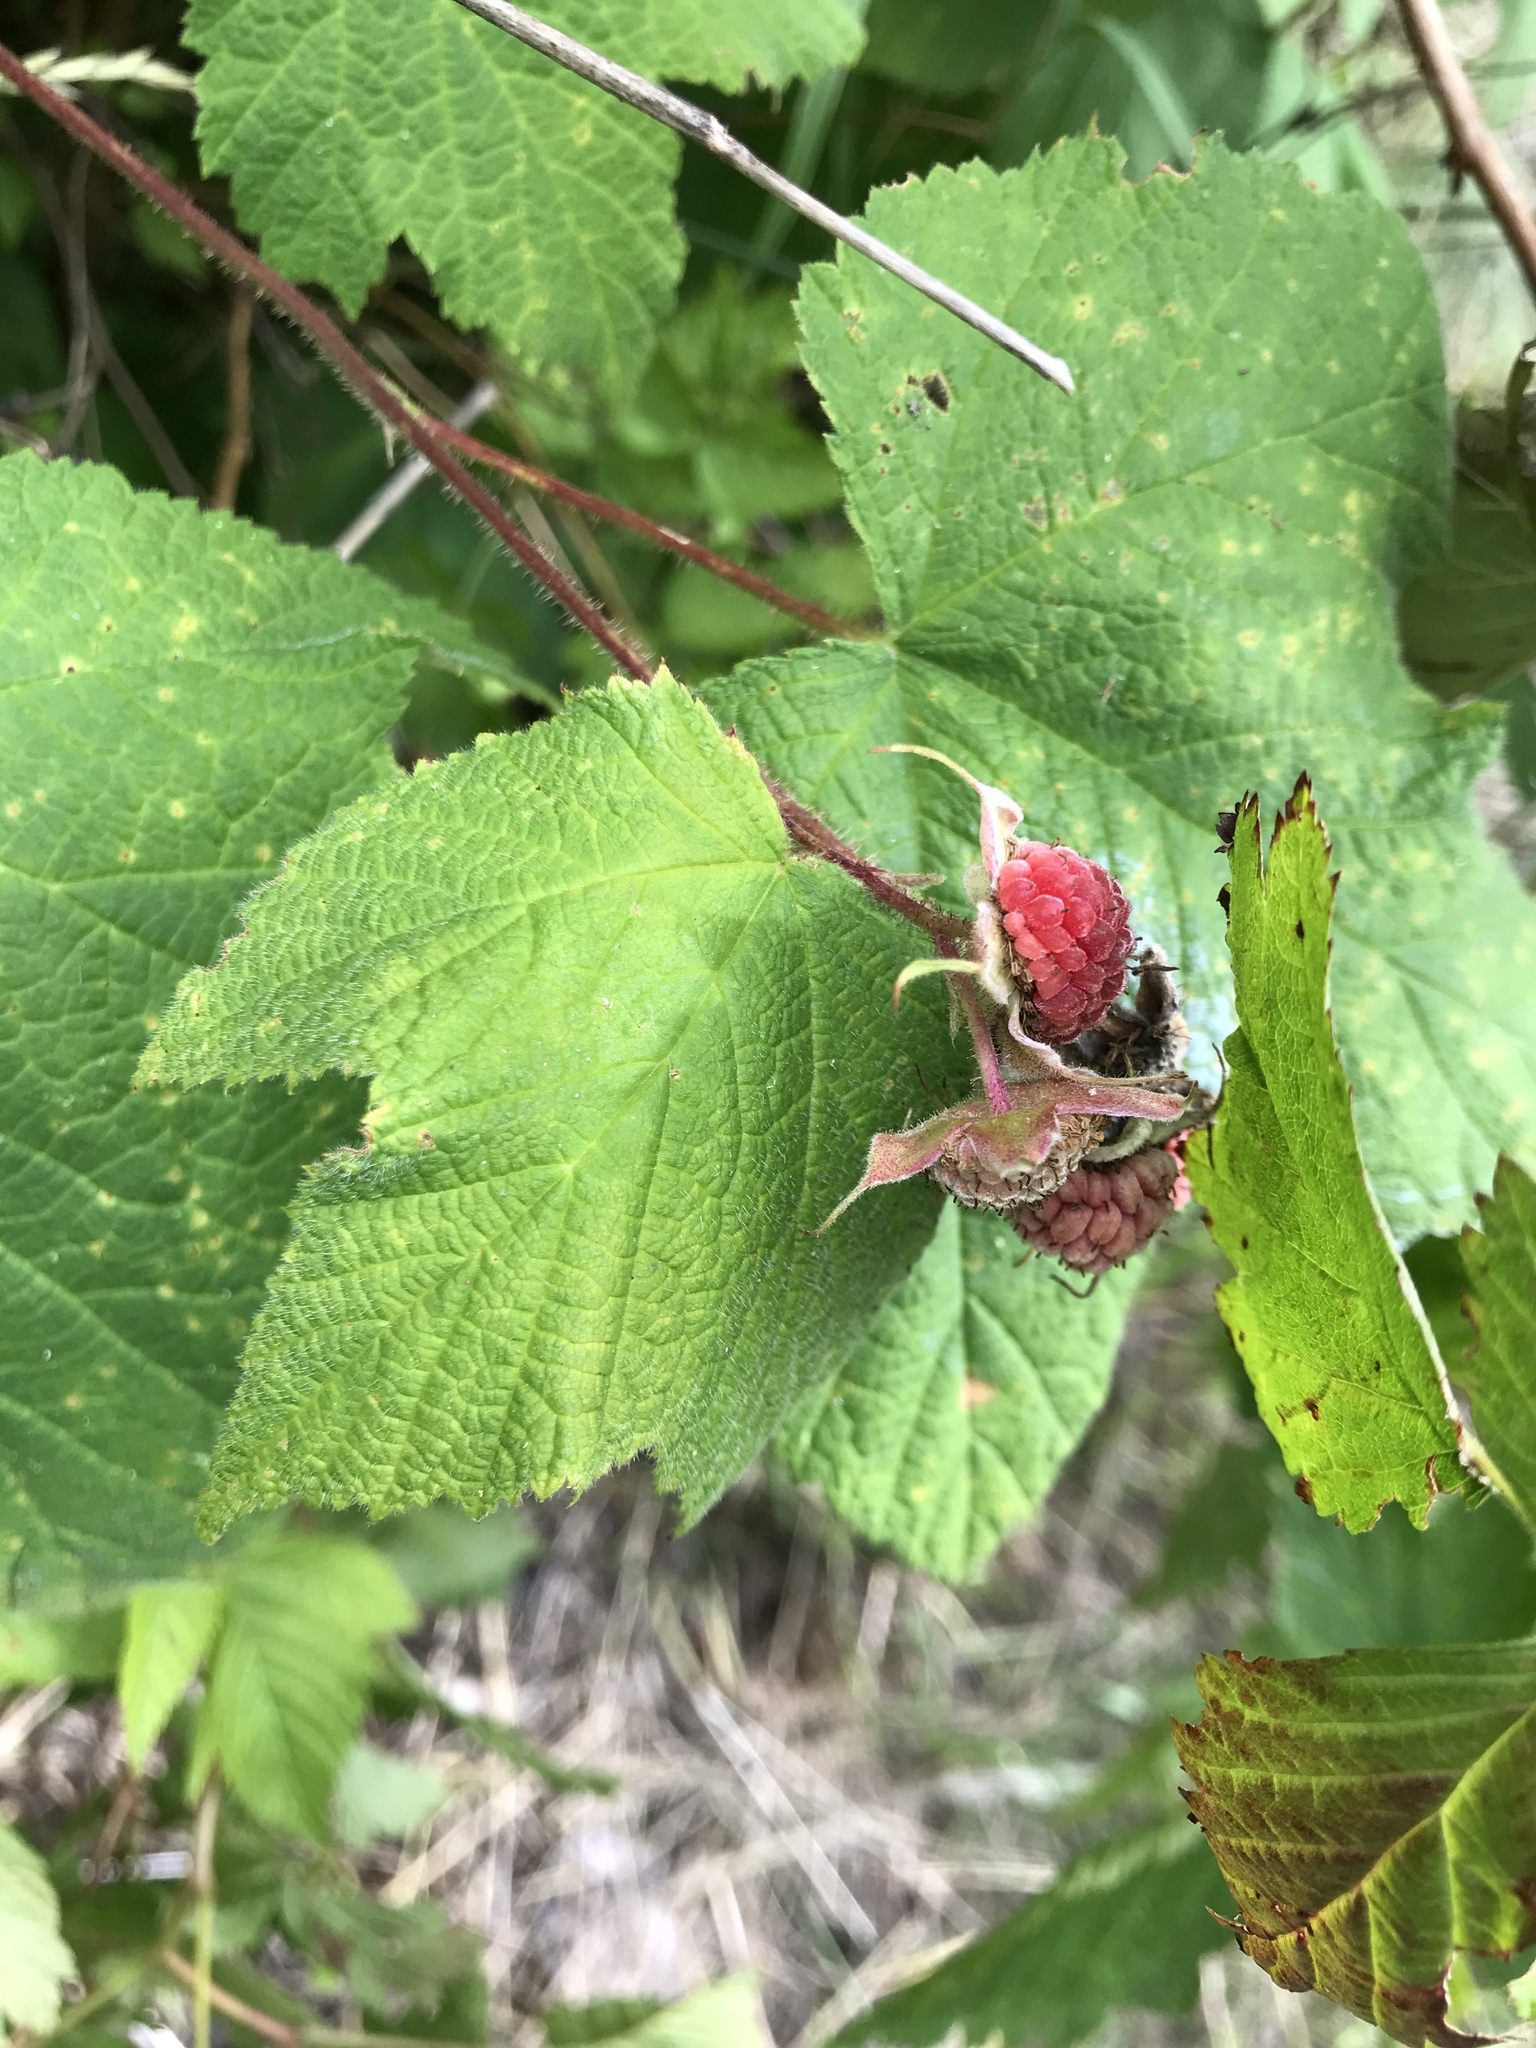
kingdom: Plantae
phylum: Tracheophyta
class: Magnoliopsida
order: Rosales
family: Rosaceae
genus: Rubus
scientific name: Rubus parviflorus
